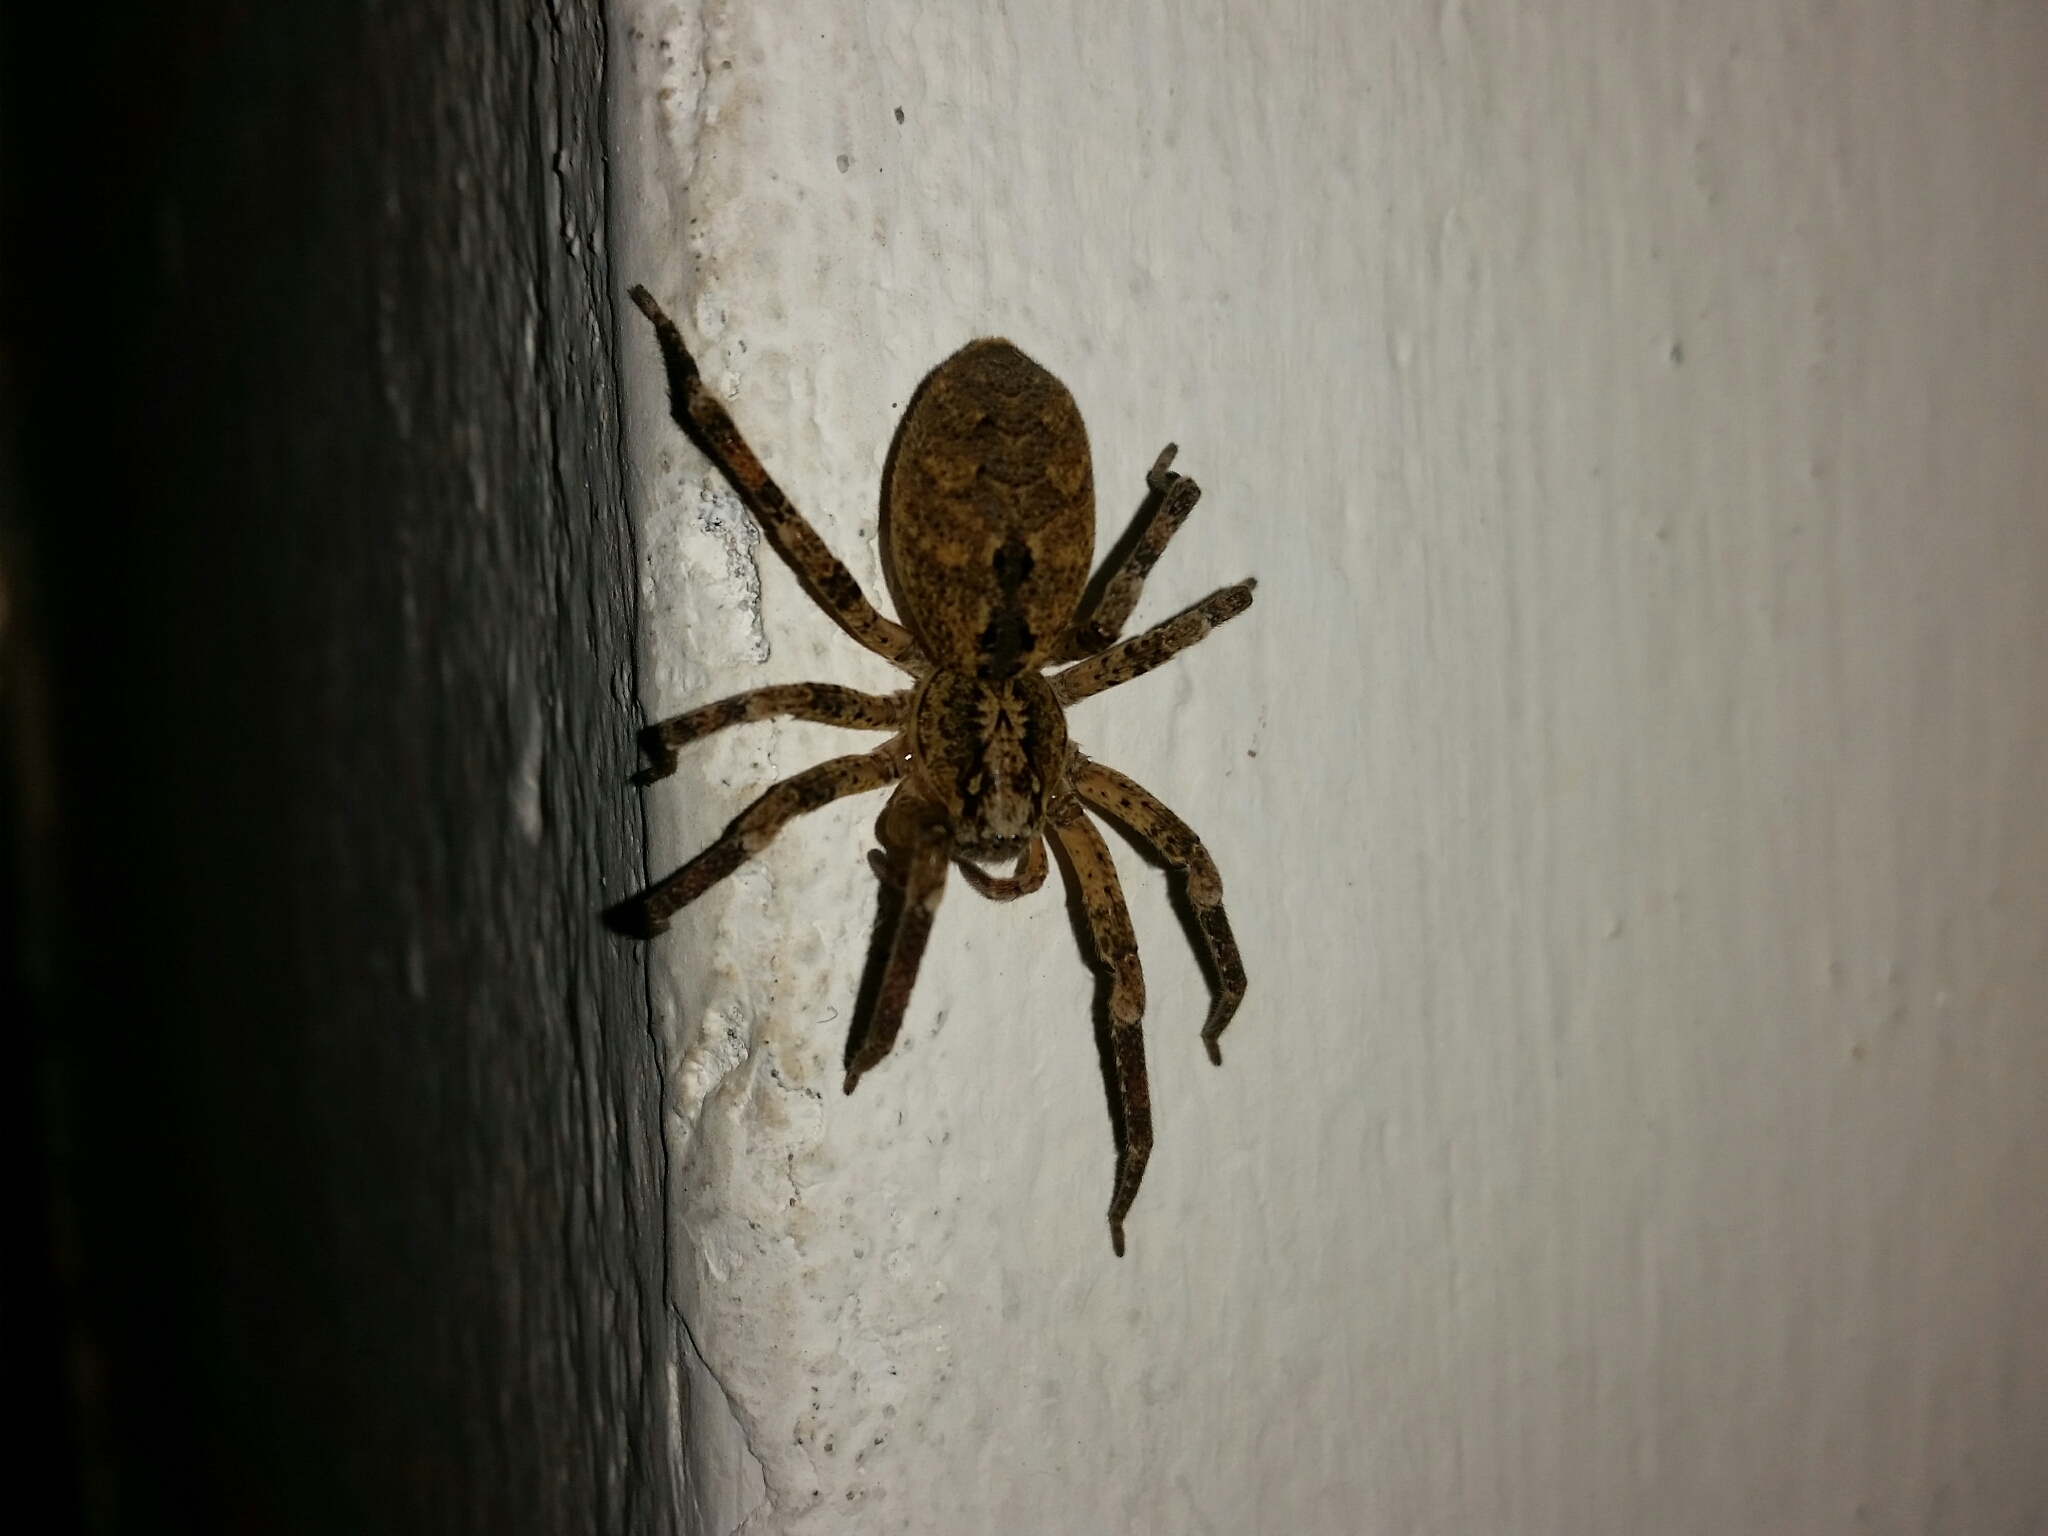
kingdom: Animalia
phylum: Arthropoda
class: Arachnida
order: Araneae
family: Zoropsidae
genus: Zoropsis
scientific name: Zoropsis spinimana
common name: Zoropsid spider
